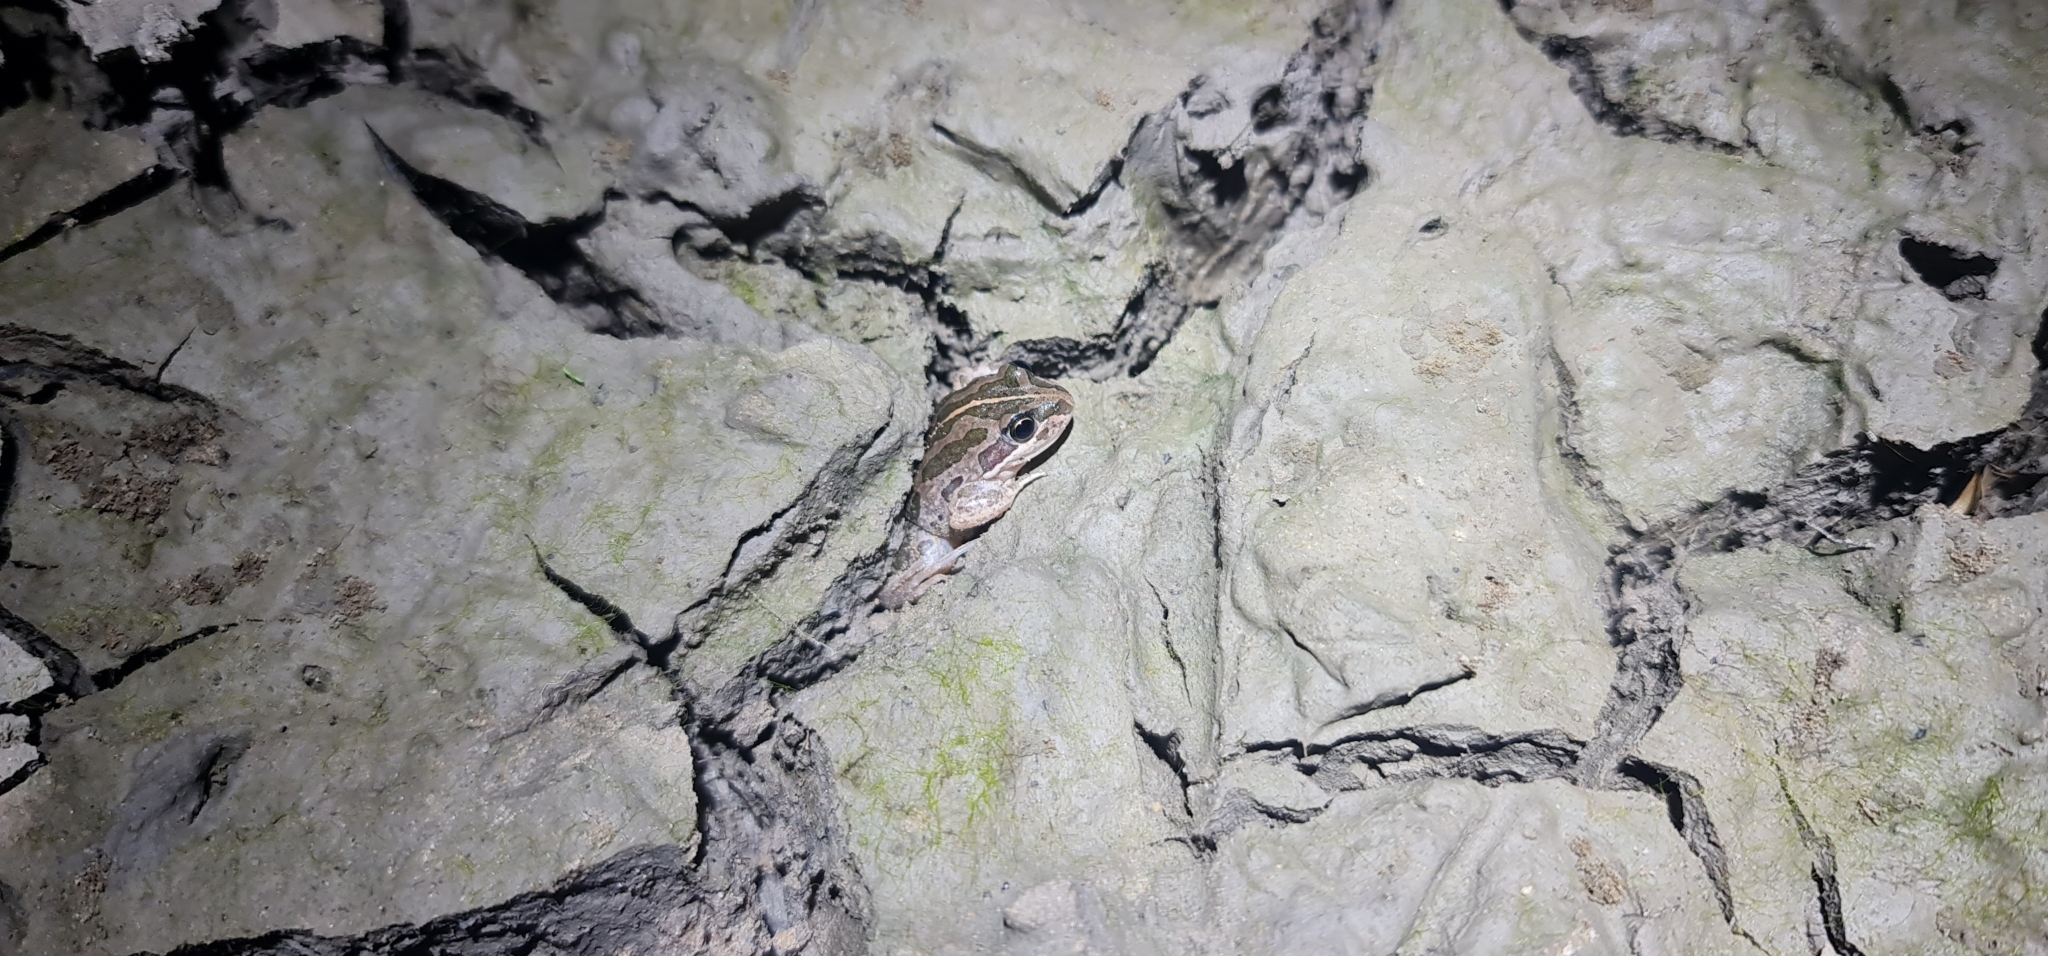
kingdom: Animalia
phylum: Chordata
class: Amphibia
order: Anura
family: Limnodynastidae
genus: Limnodynastes
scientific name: Limnodynastes tasmaniensis
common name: Spotted marsh frog
